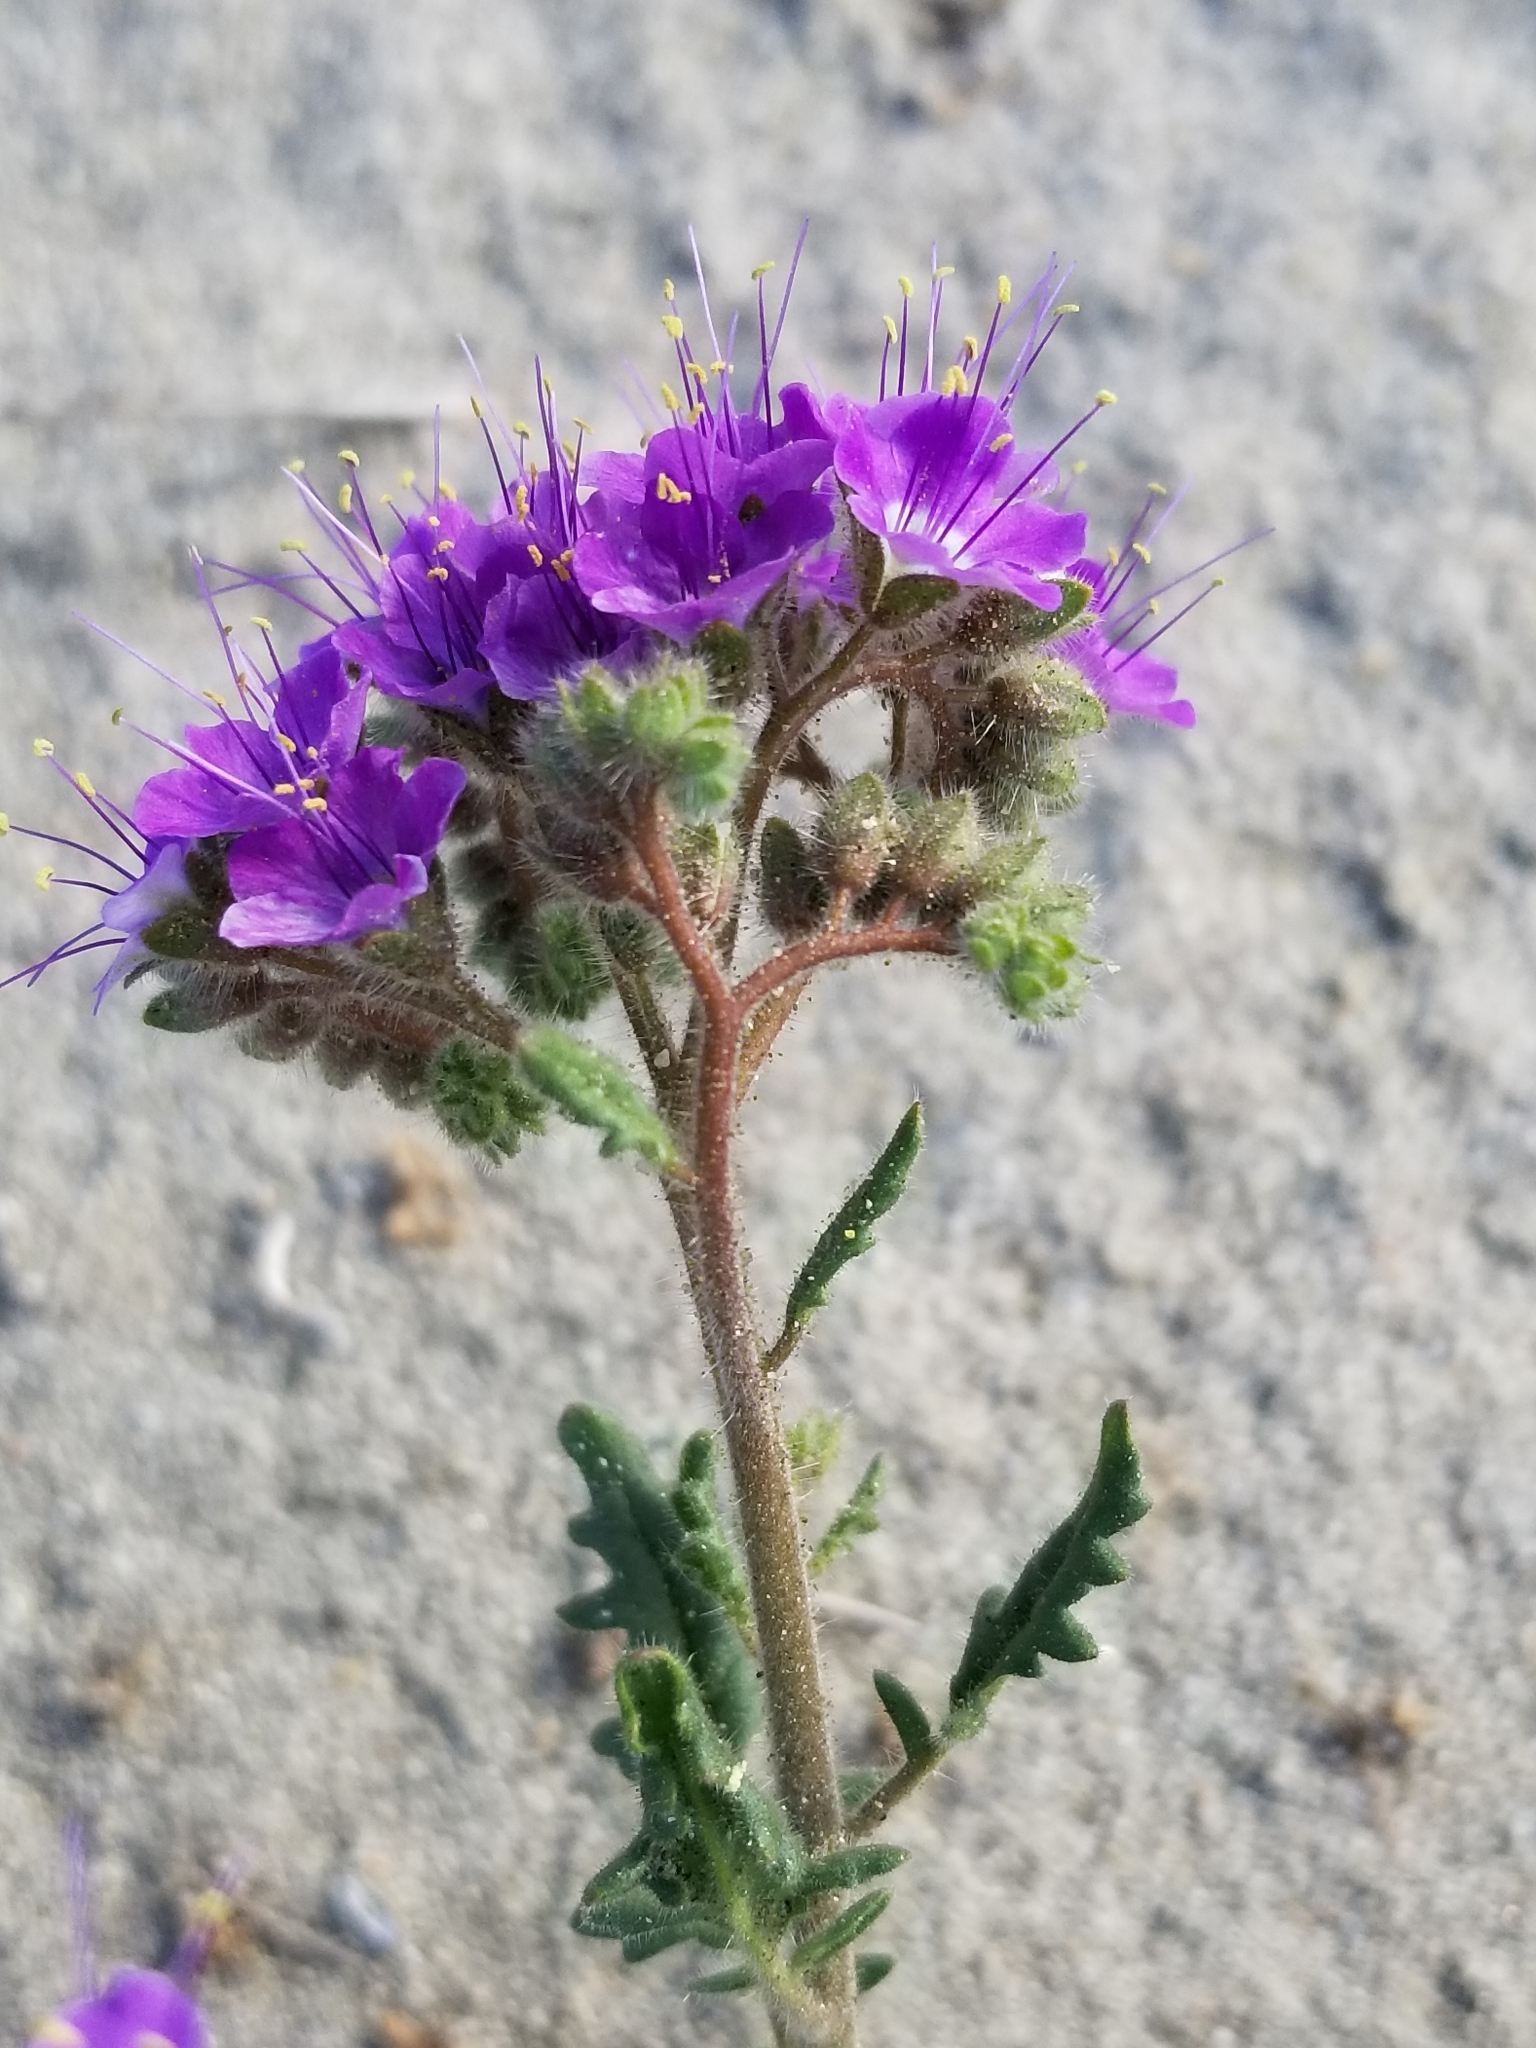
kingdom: Plantae
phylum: Tracheophyta
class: Magnoliopsida
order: Boraginales
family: Hydrophyllaceae
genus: Phacelia
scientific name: Phacelia crenulata
